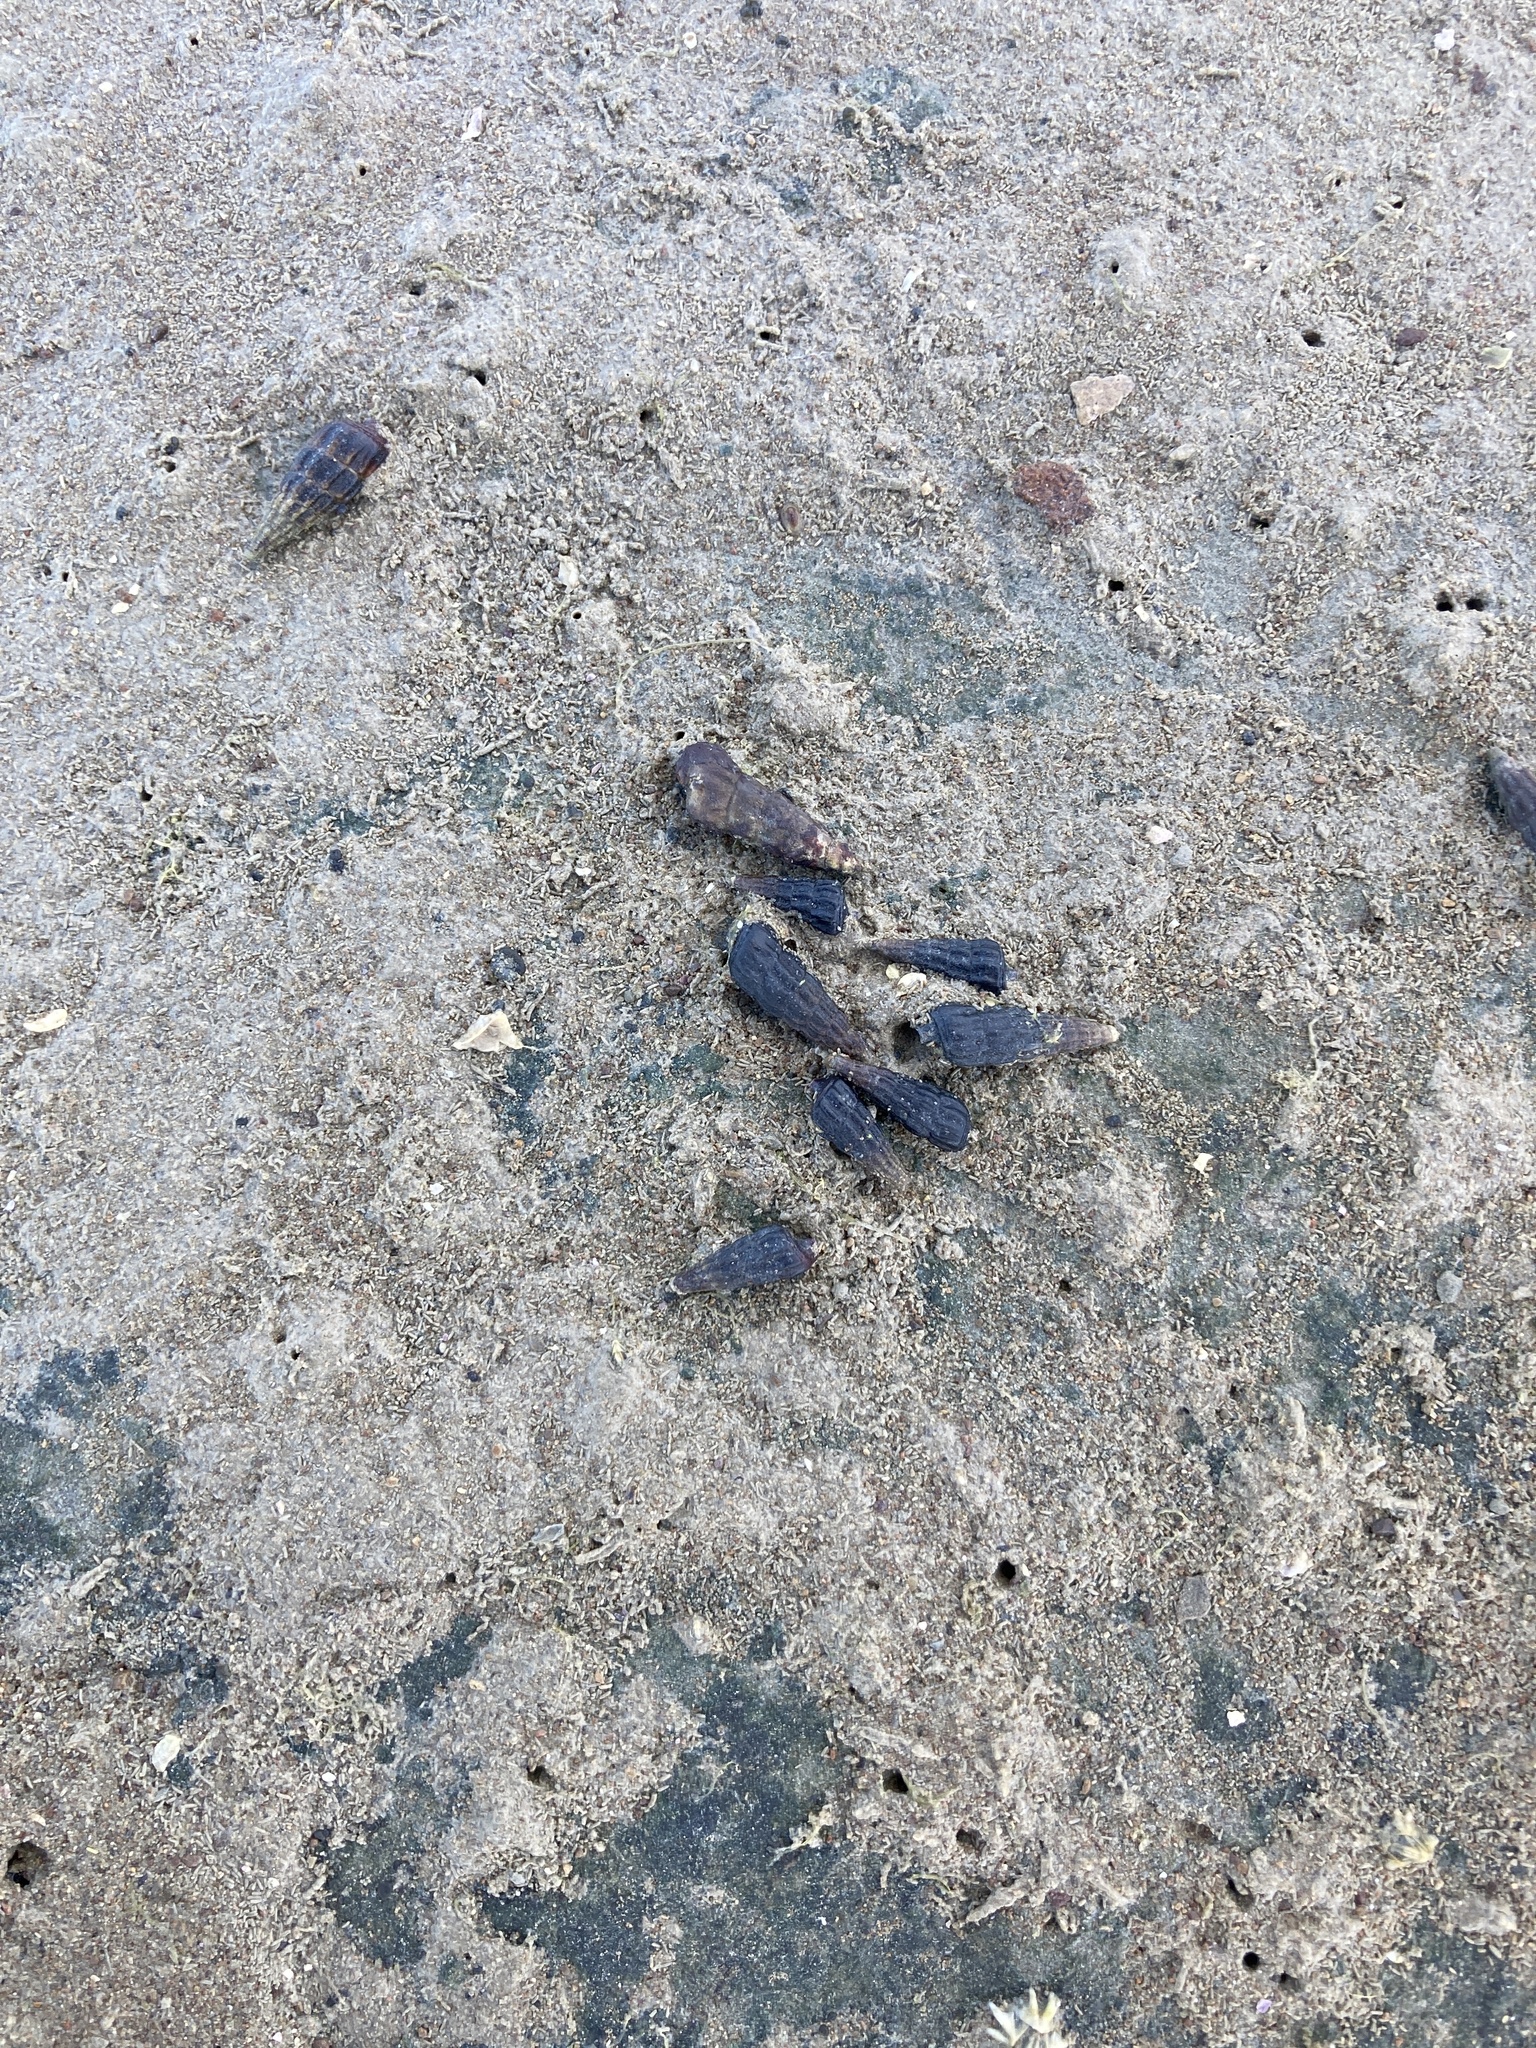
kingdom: Animalia
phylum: Mollusca
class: Gastropoda
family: Batillariidae
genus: Zeacumantus
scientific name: Zeacumantus subcarinatus
